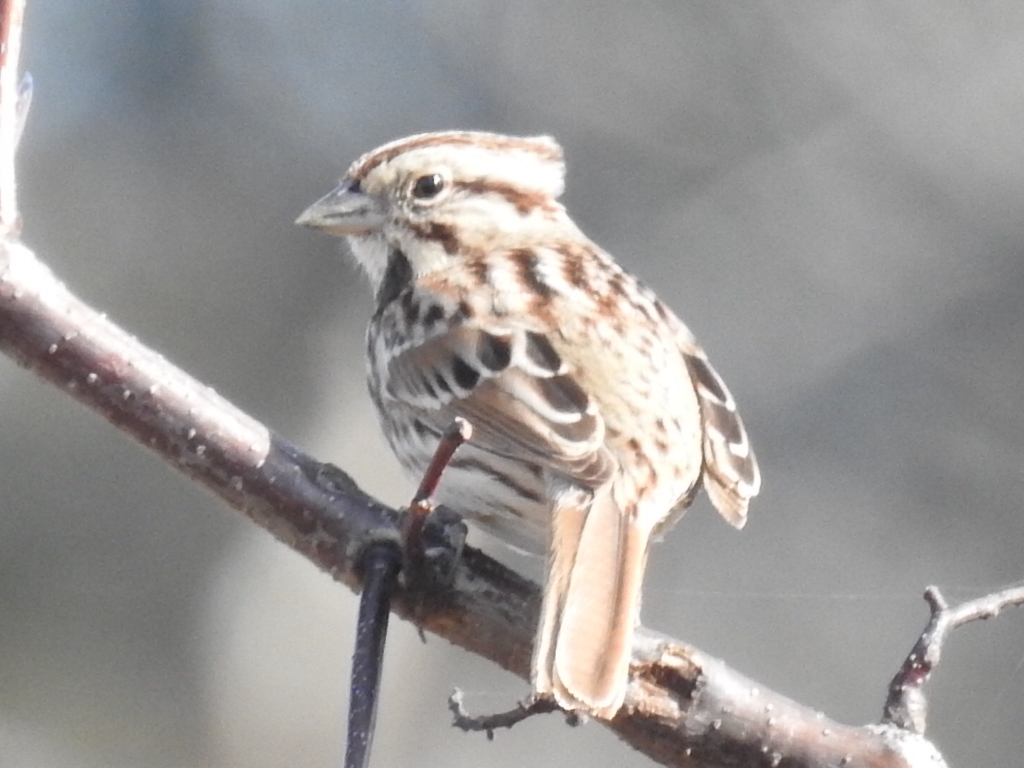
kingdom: Animalia
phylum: Chordata
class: Aves
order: Passeriformes
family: Passerellidae
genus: Melospiza
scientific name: Melospiza melodia
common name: Song sparrow
